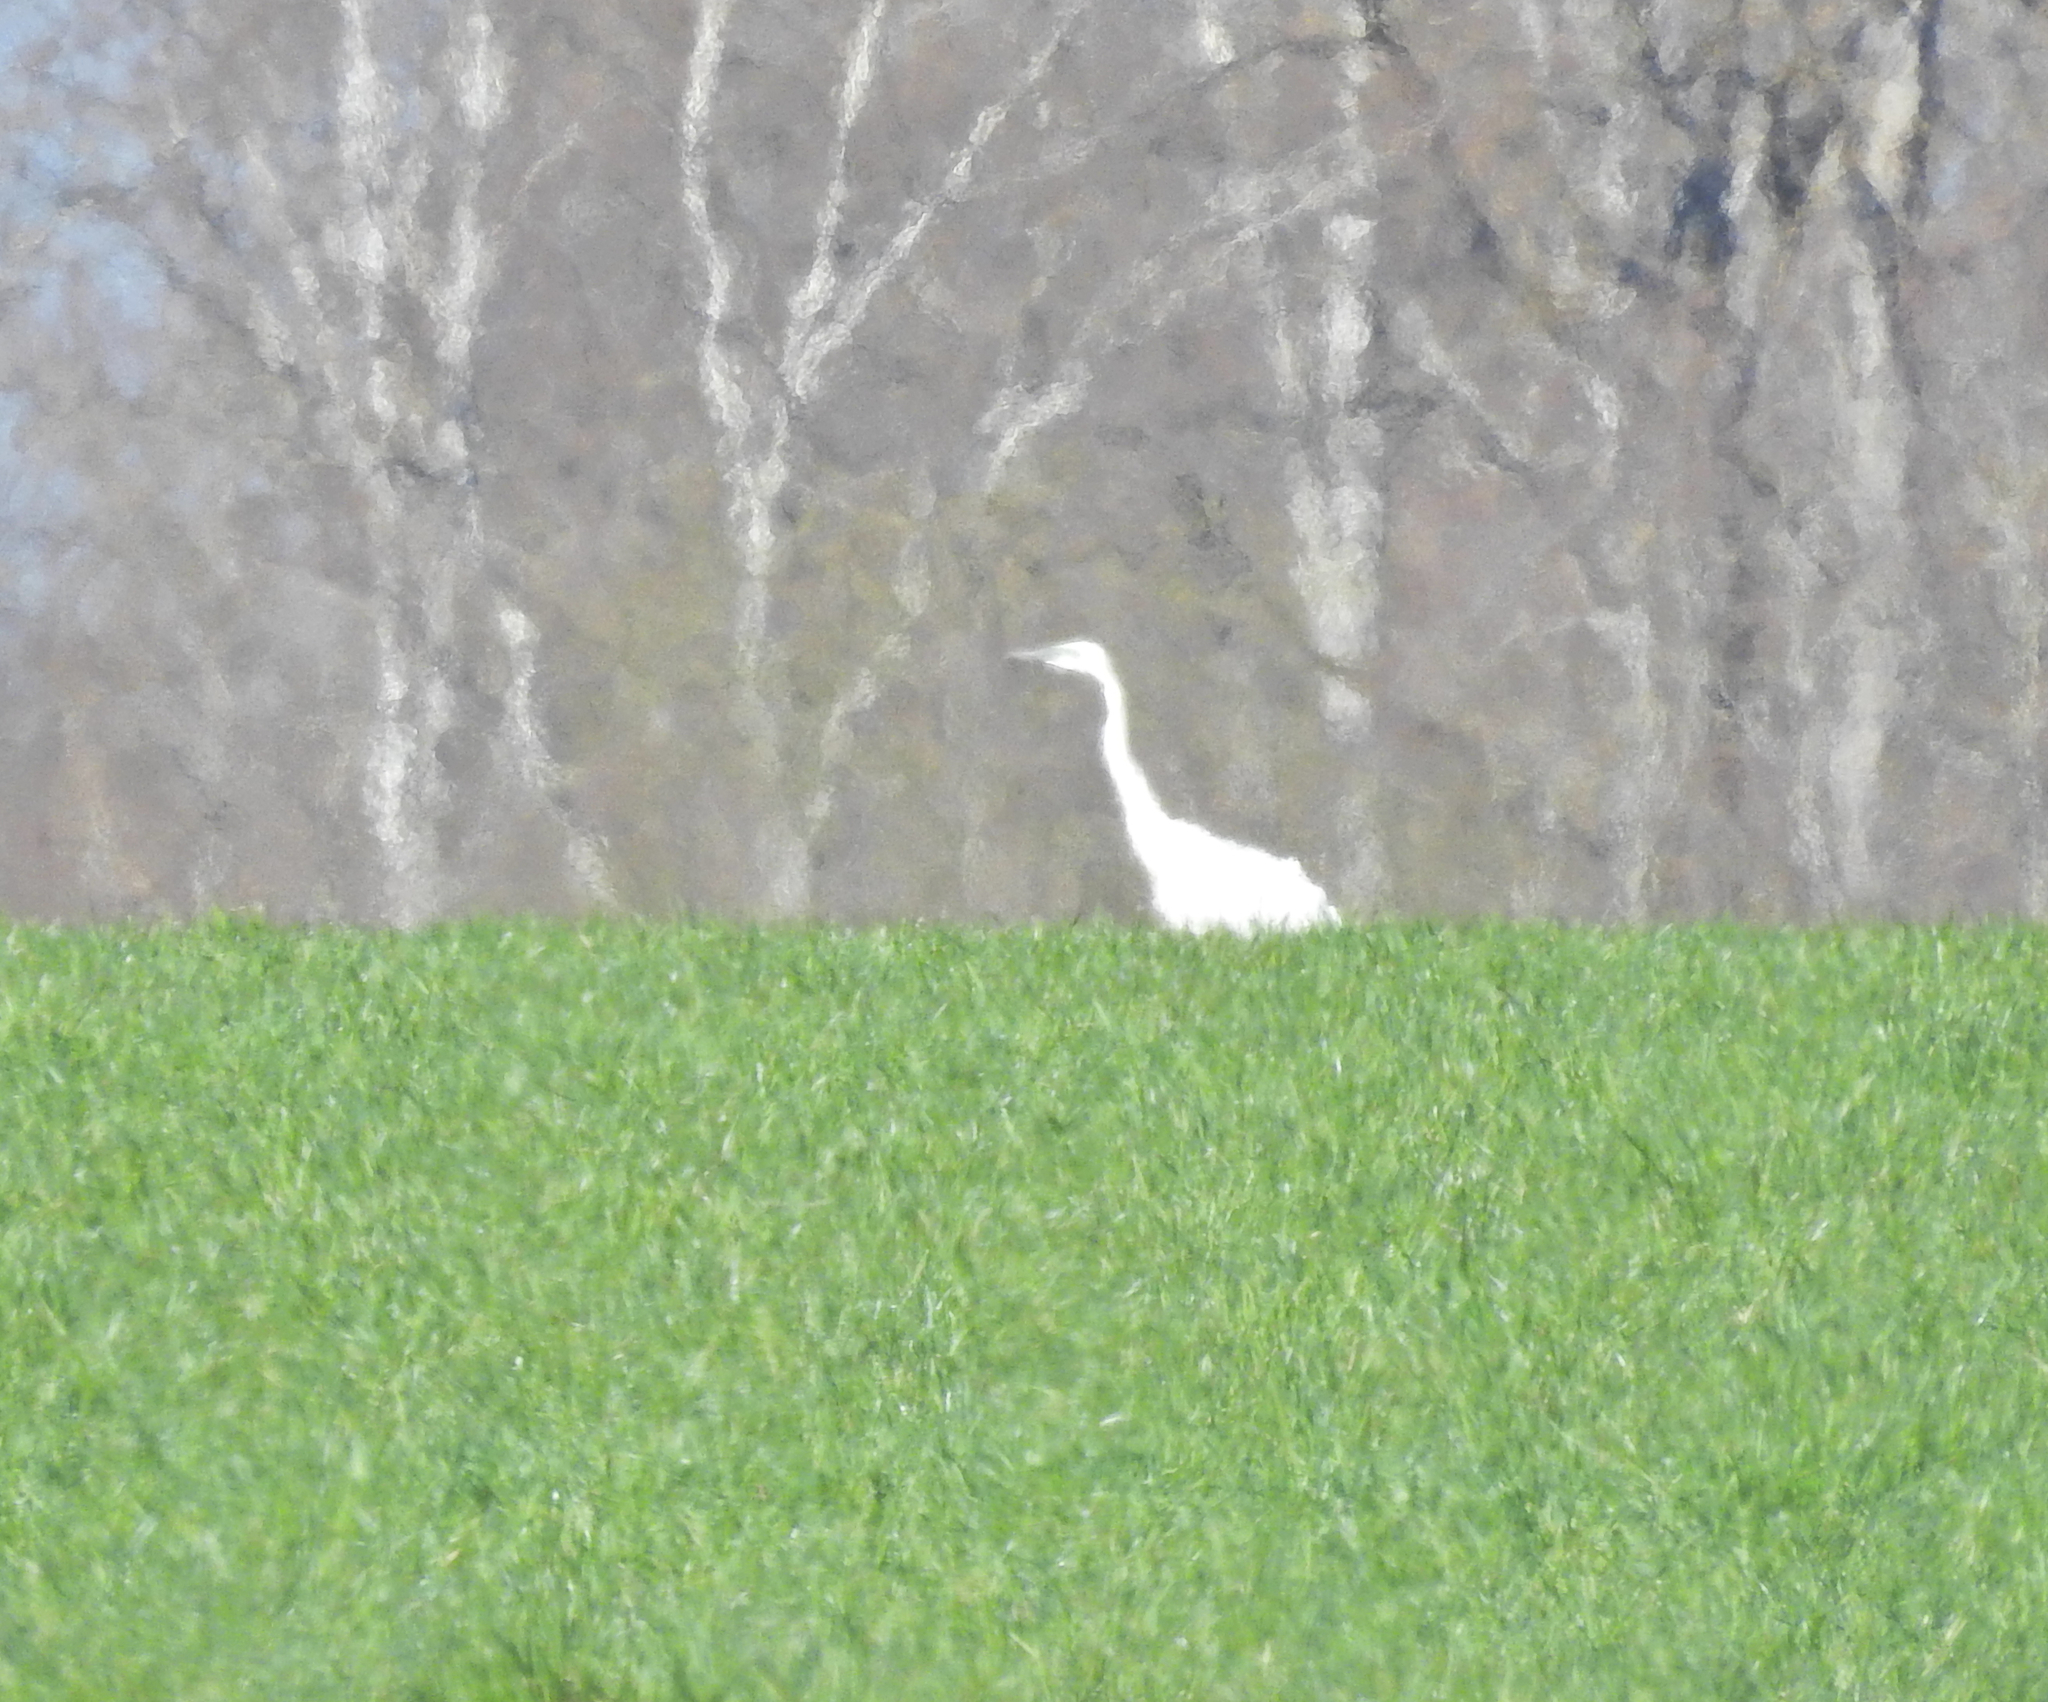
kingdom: Animalia
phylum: Chordata
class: Aves
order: Pelecaniformes
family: Ardeidae
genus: Ardea
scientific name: Ardea alba
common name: Great egret
